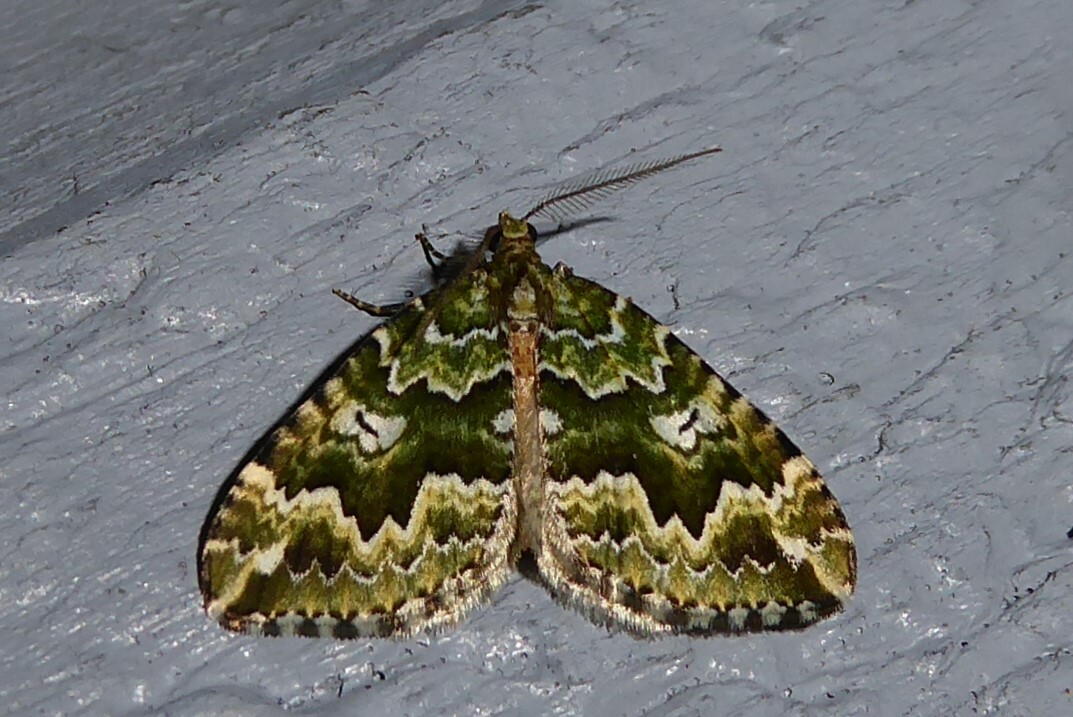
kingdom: Animalia
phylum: Arthropoda
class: Insecta
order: Lepidoptera
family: Geometridae
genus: Asaphodes
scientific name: Asaphodes beata
